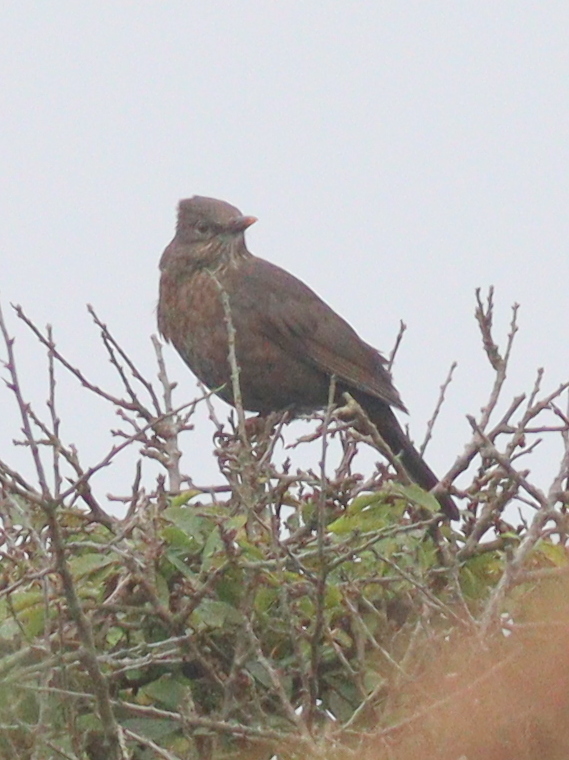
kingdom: Animalia
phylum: Chordata
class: Aves
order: Passeriformes
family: Turdidae
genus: Turdus
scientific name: Turdus merula
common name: Common blackbird
